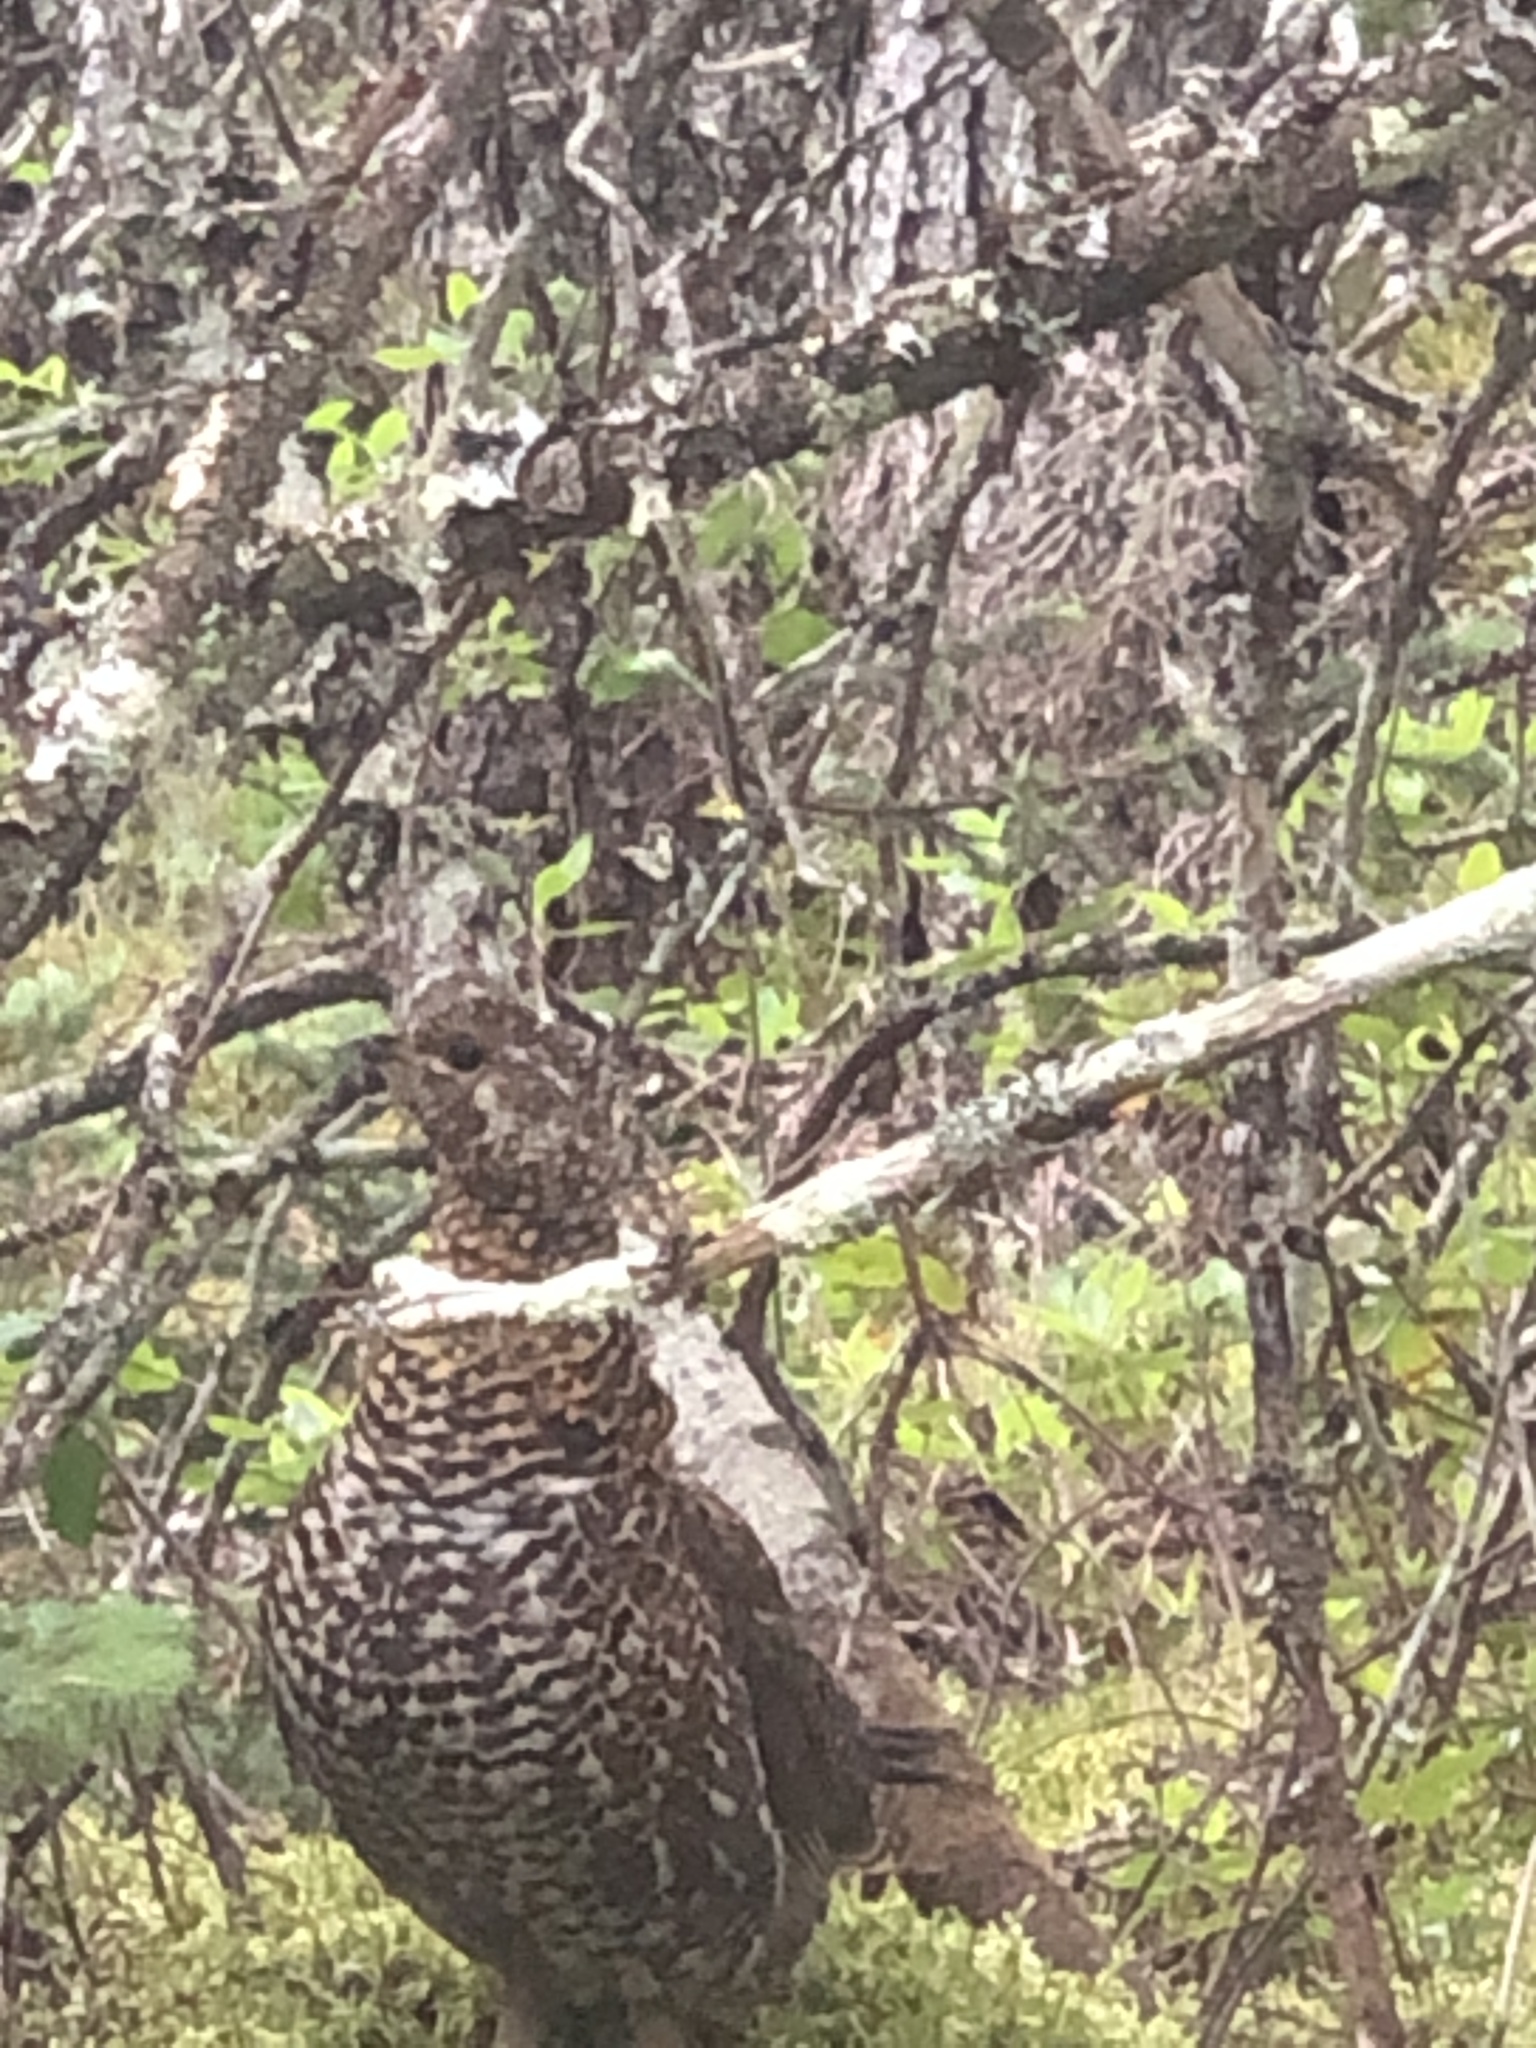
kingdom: Animalia
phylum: Chordata
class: Aves
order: Galliformes
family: Phasianidae
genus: Canachites
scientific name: Canachites canadensis
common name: Spruce grouse
